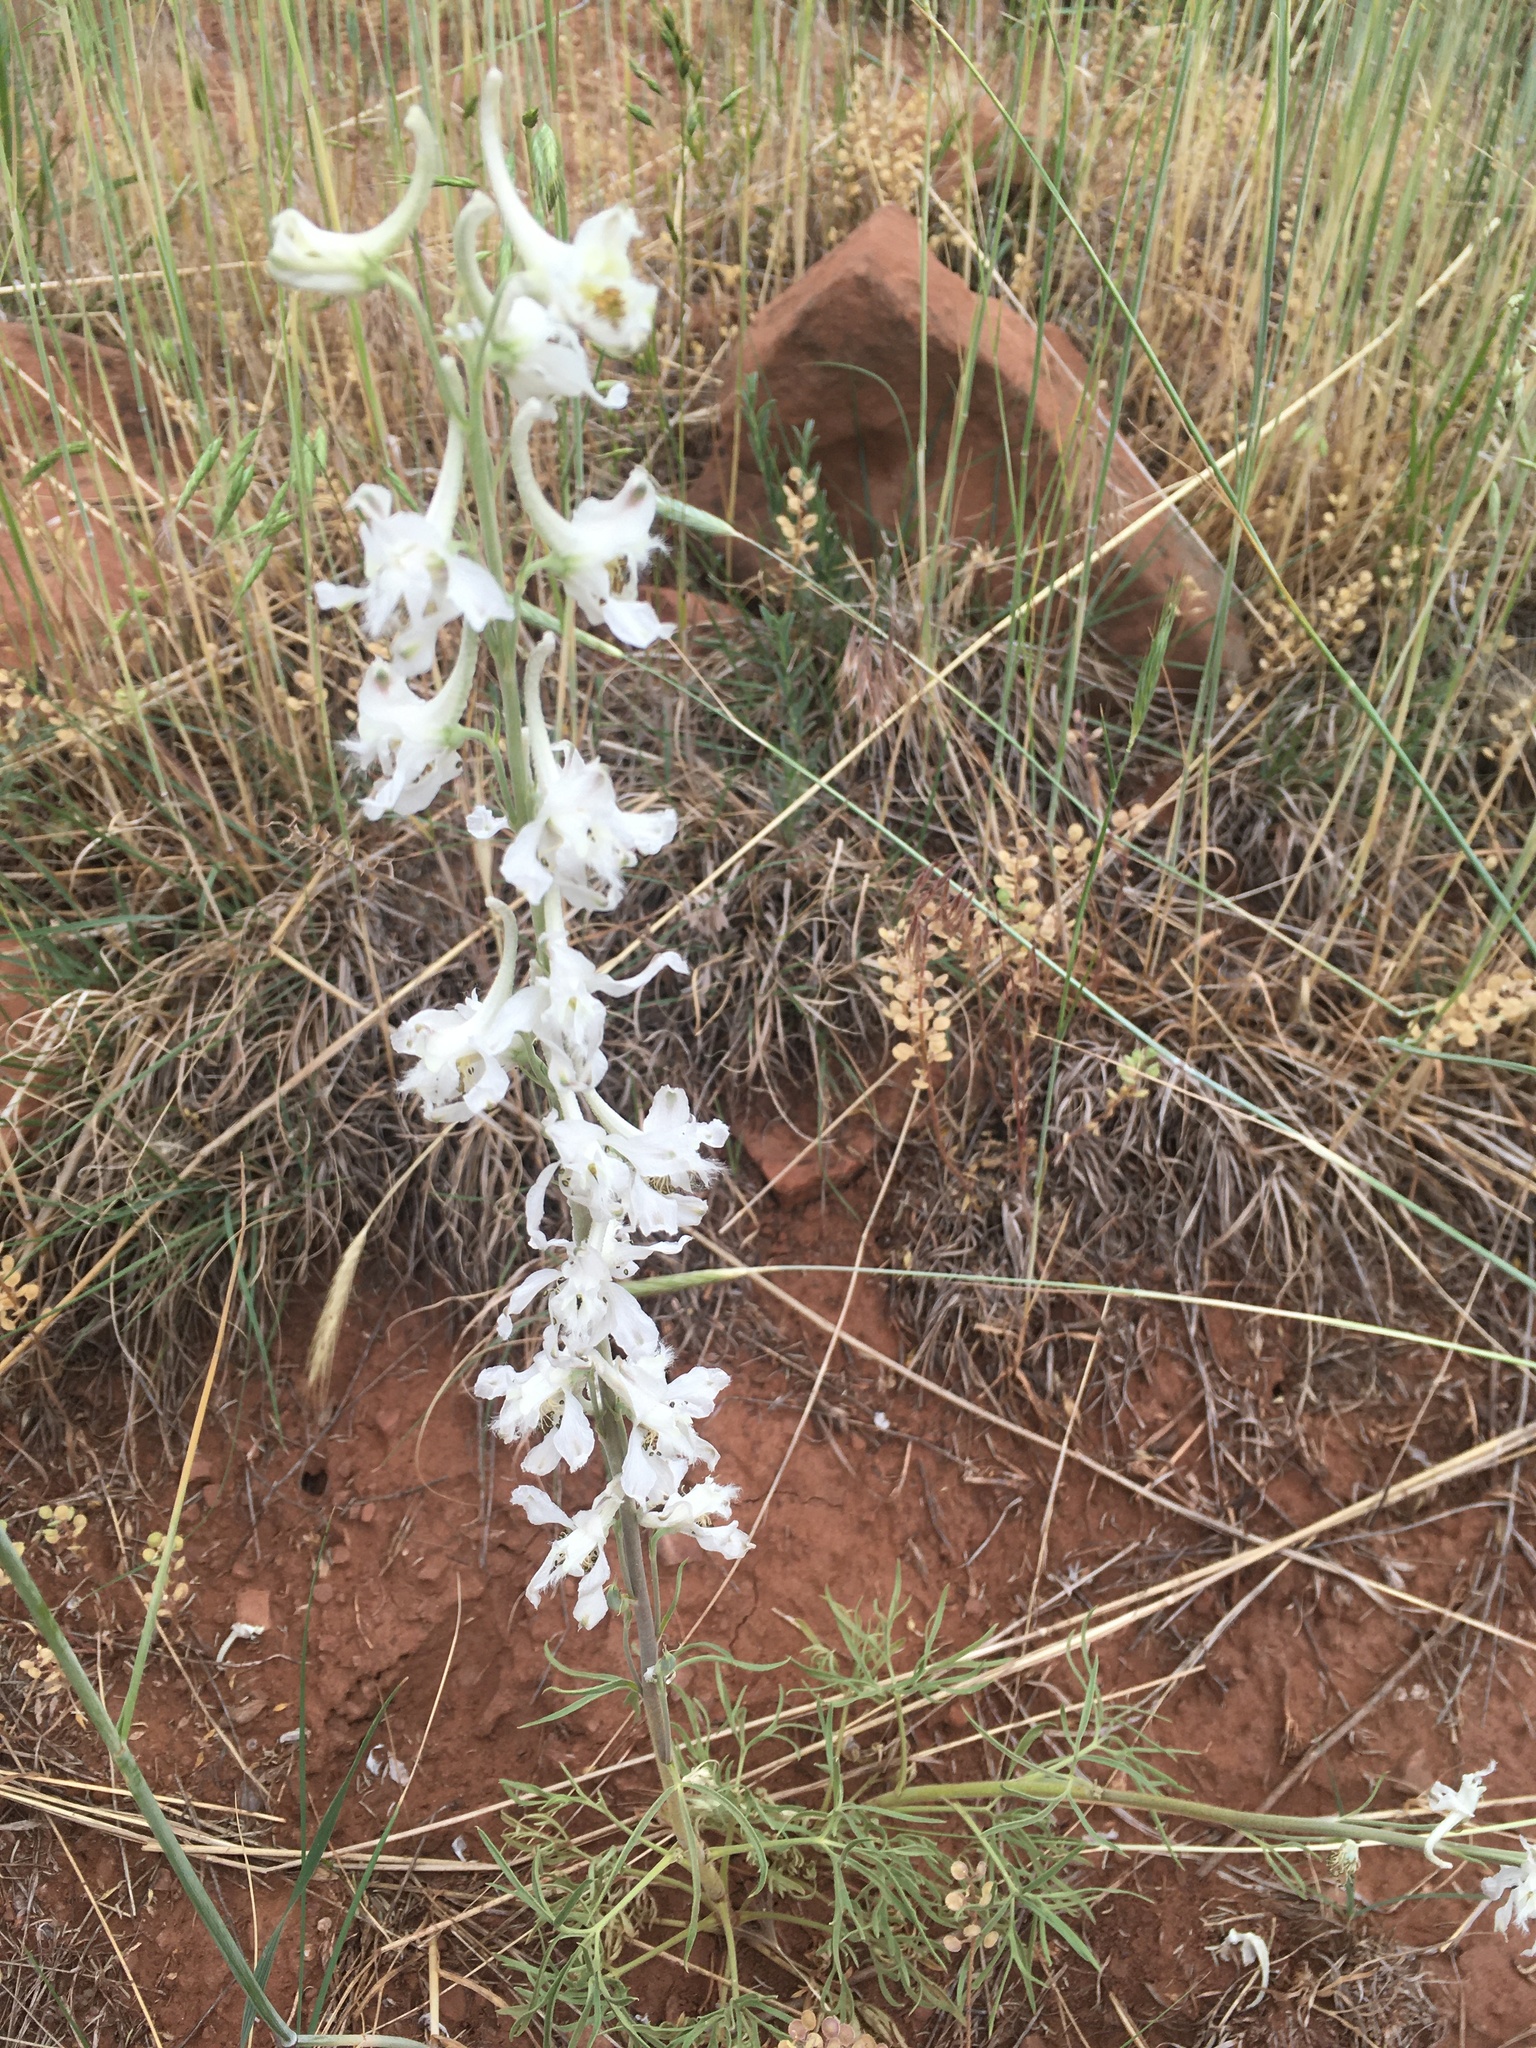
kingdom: Plantae
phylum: Tracheophyta
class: Magnoliopsida
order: Ranunculales
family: Ranunculaceae
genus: Delphinium
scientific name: Delphinium carolinianum
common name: Carolina larkspur
